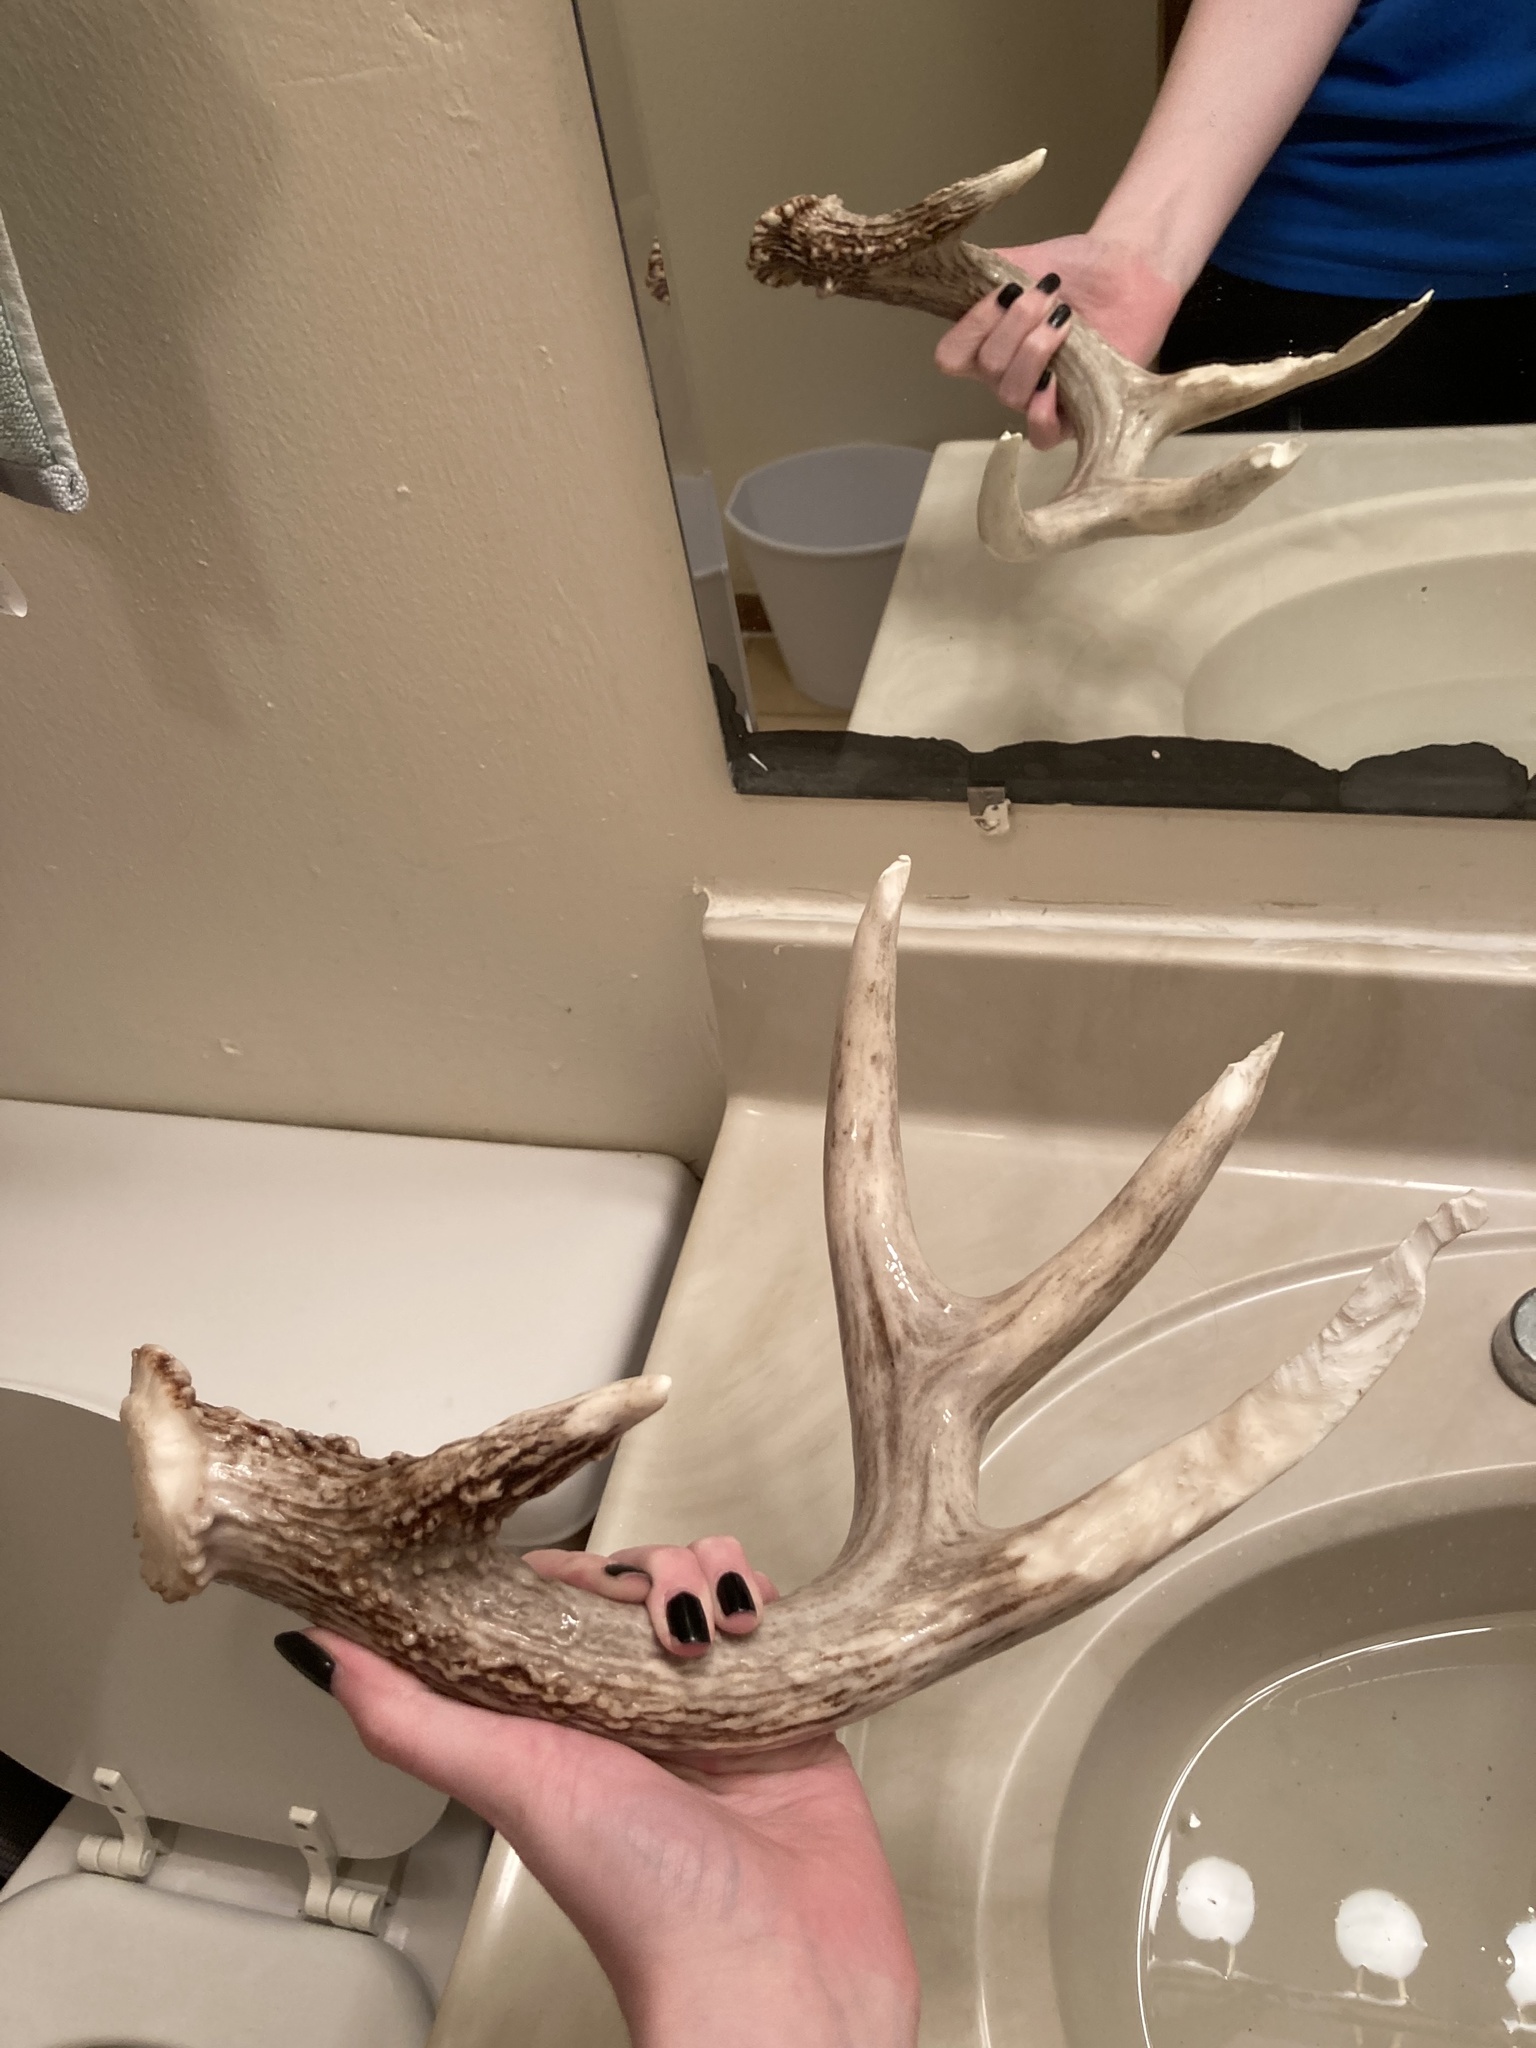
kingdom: Animalia
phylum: Chordata
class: Mammalia
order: Artiodactyla
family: Cervidae
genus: Odocoileus
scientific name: Odocoileus virginianus
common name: White-tailed deer
